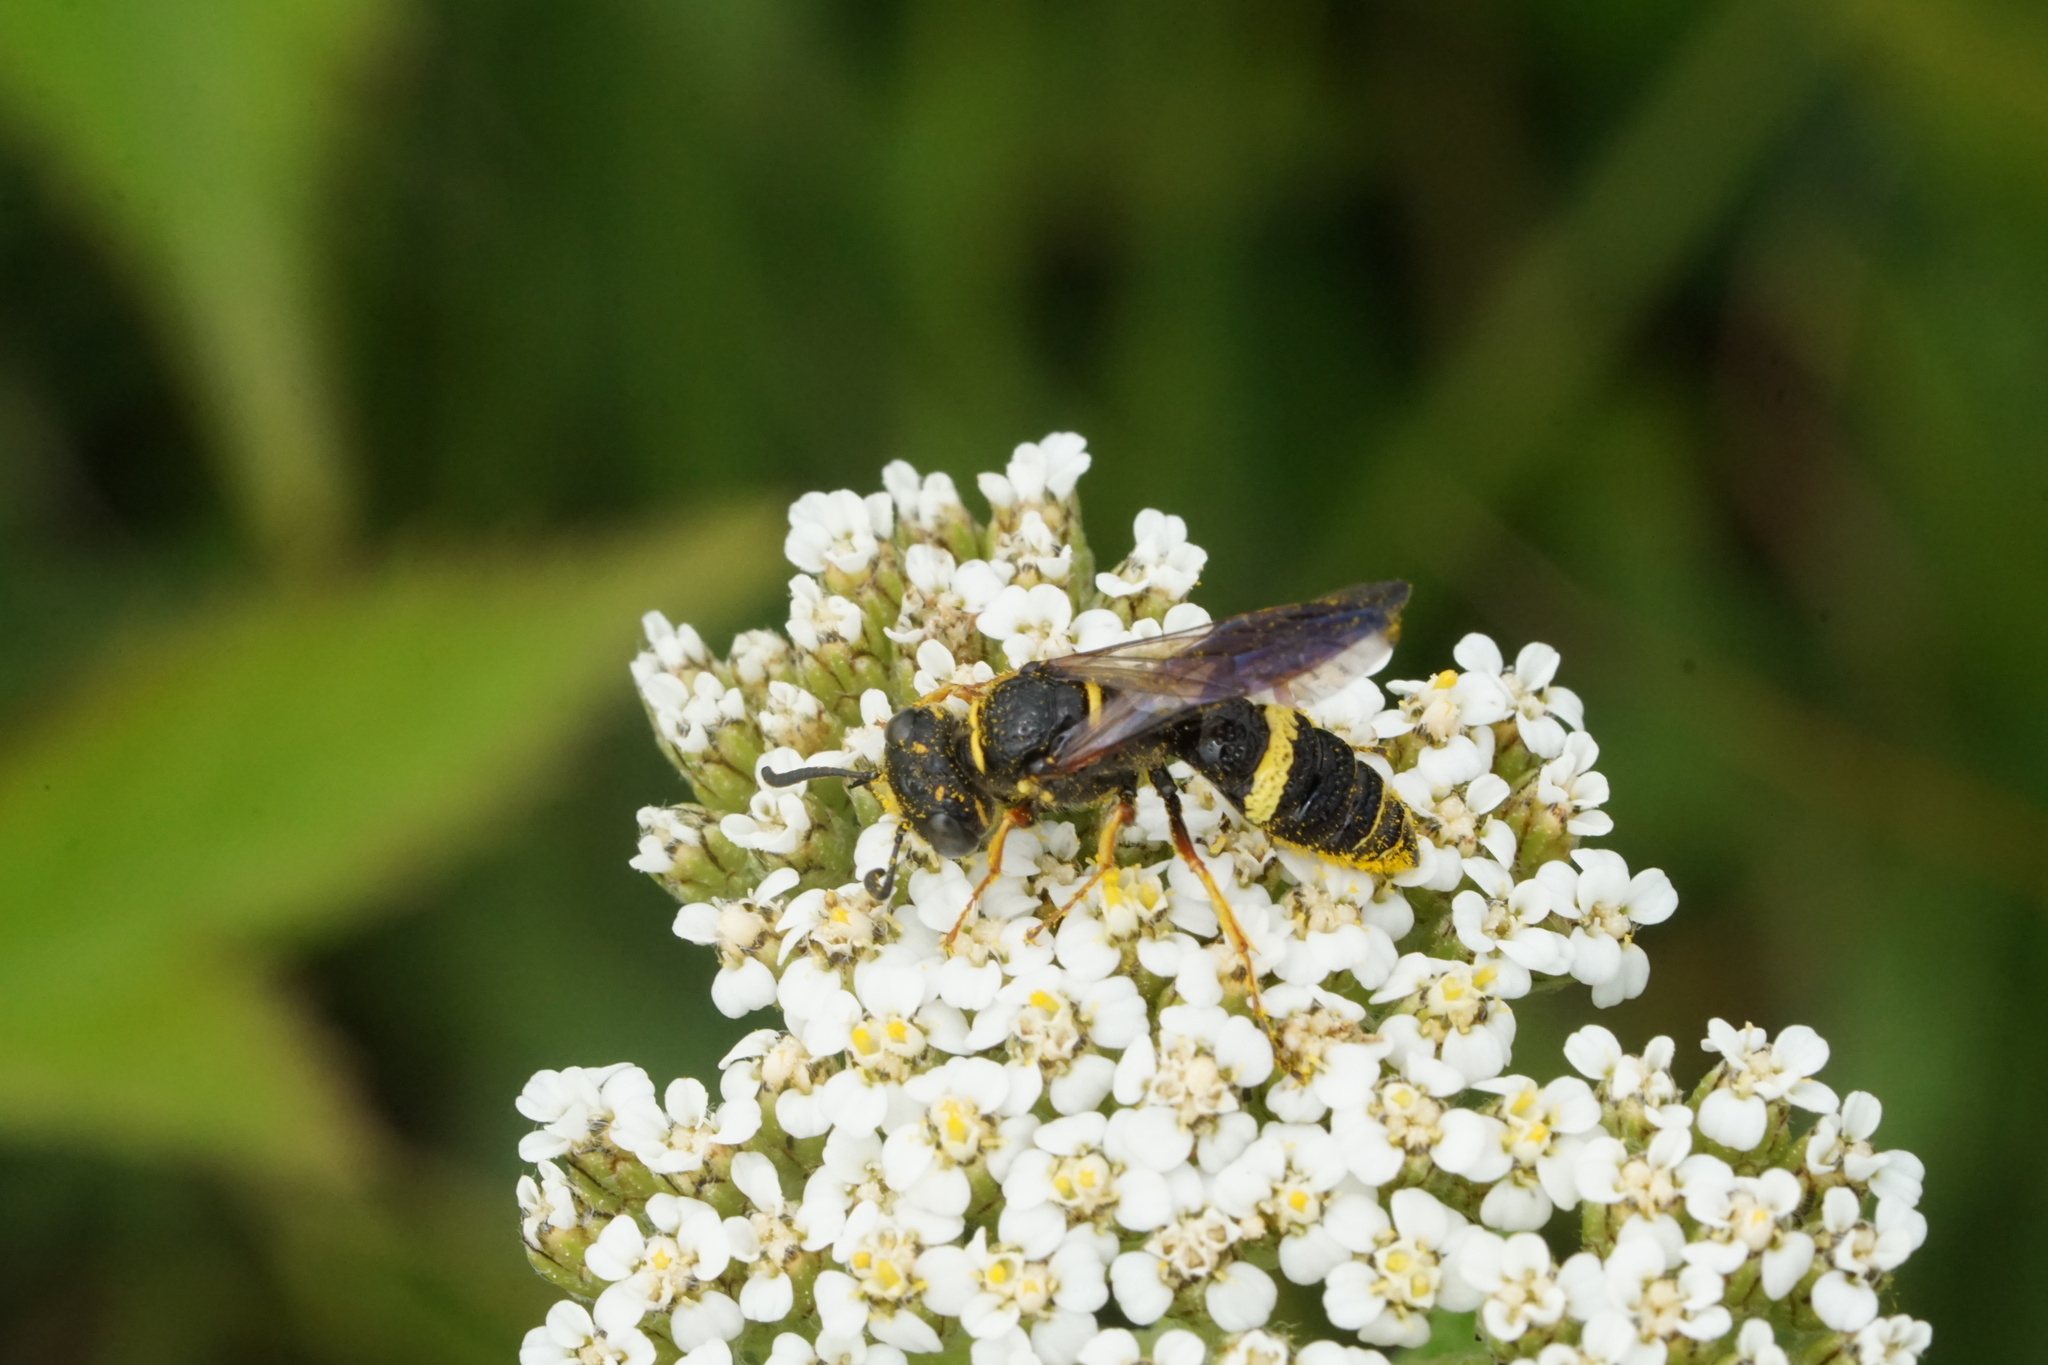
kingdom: Animalia
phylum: Arthropoda
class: Insecta
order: Hymenoptera
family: Crabronidae
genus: Philanthus
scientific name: Philanthus gibbosus
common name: Humped beewolf
